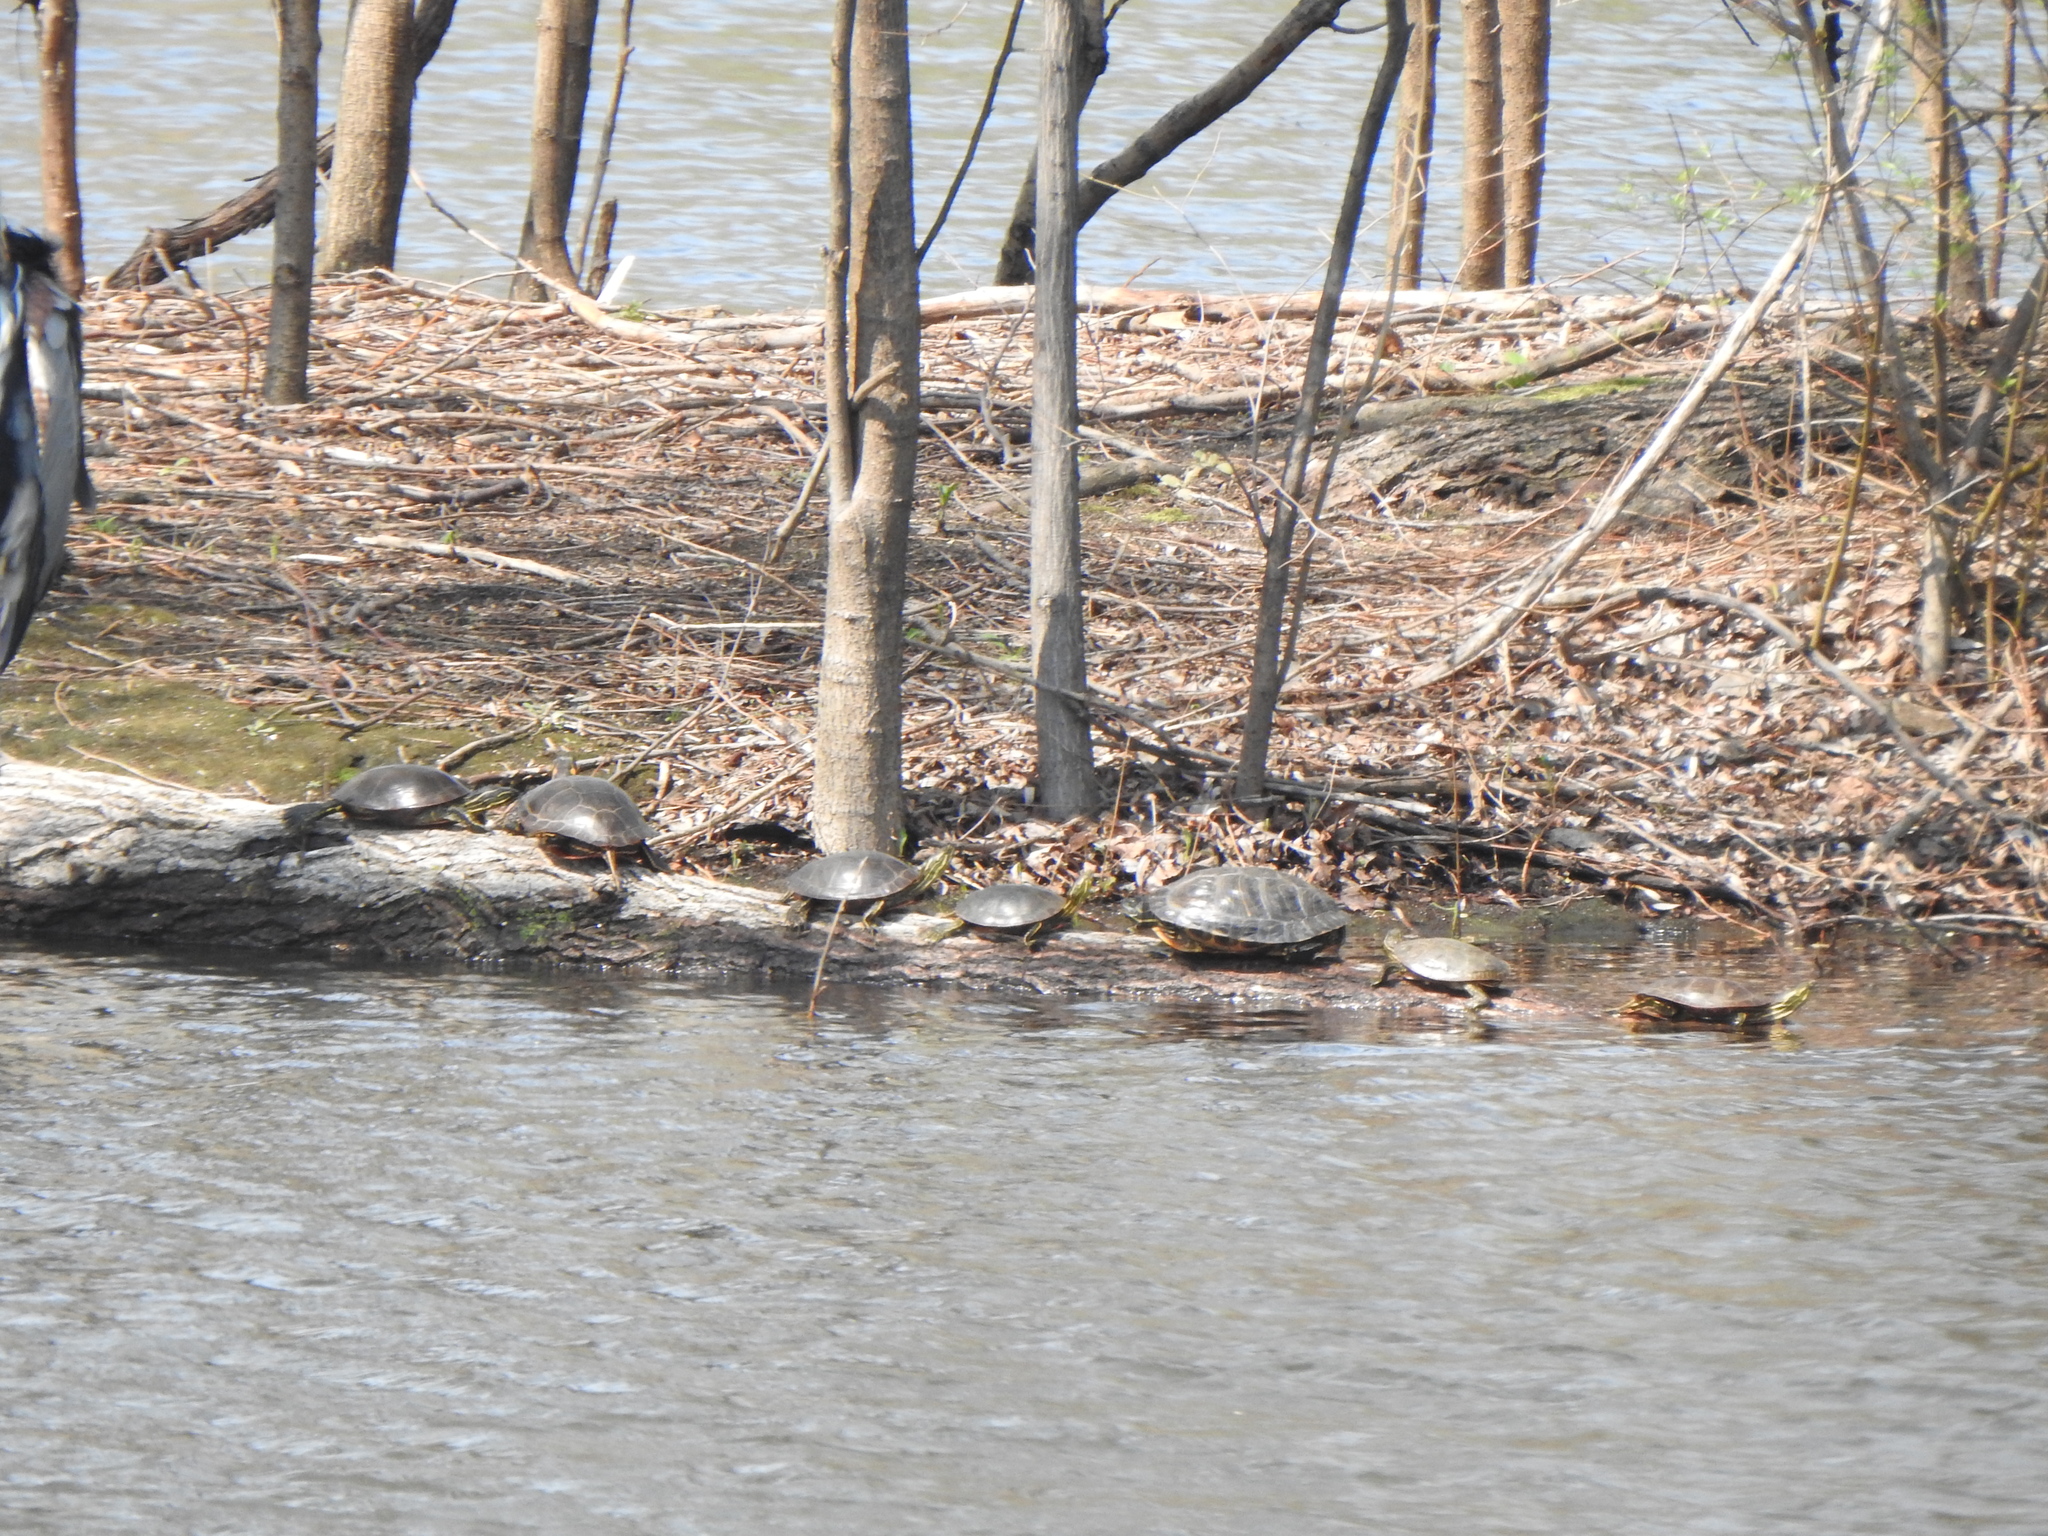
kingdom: Animalia
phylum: Chordata
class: Testudines
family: Emydidae
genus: Trachemys
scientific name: Trachemys scripta
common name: Slider
